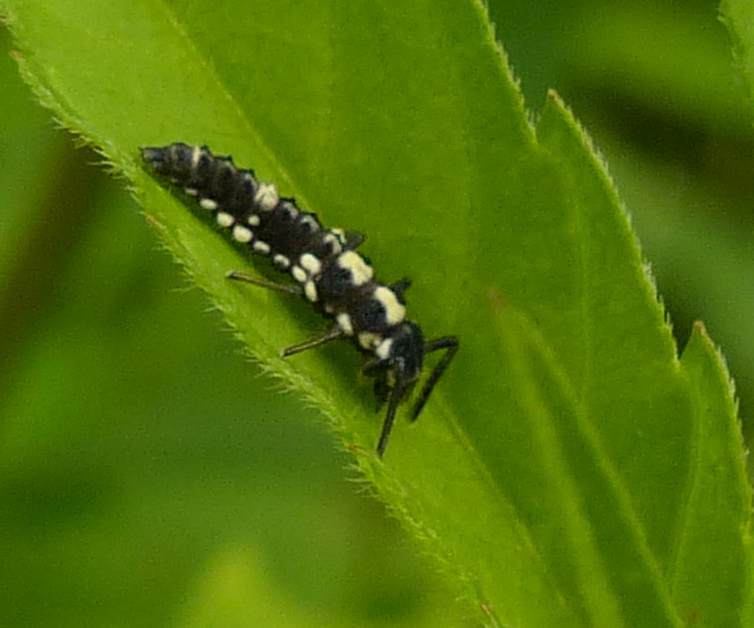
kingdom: Animalia
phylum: Arthropoda
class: Insecta
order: Coleoptera
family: Coccinellidae
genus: Propylaea
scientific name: Propylaea quatuordecimpunctata
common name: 14-spotted ladybird beetle
